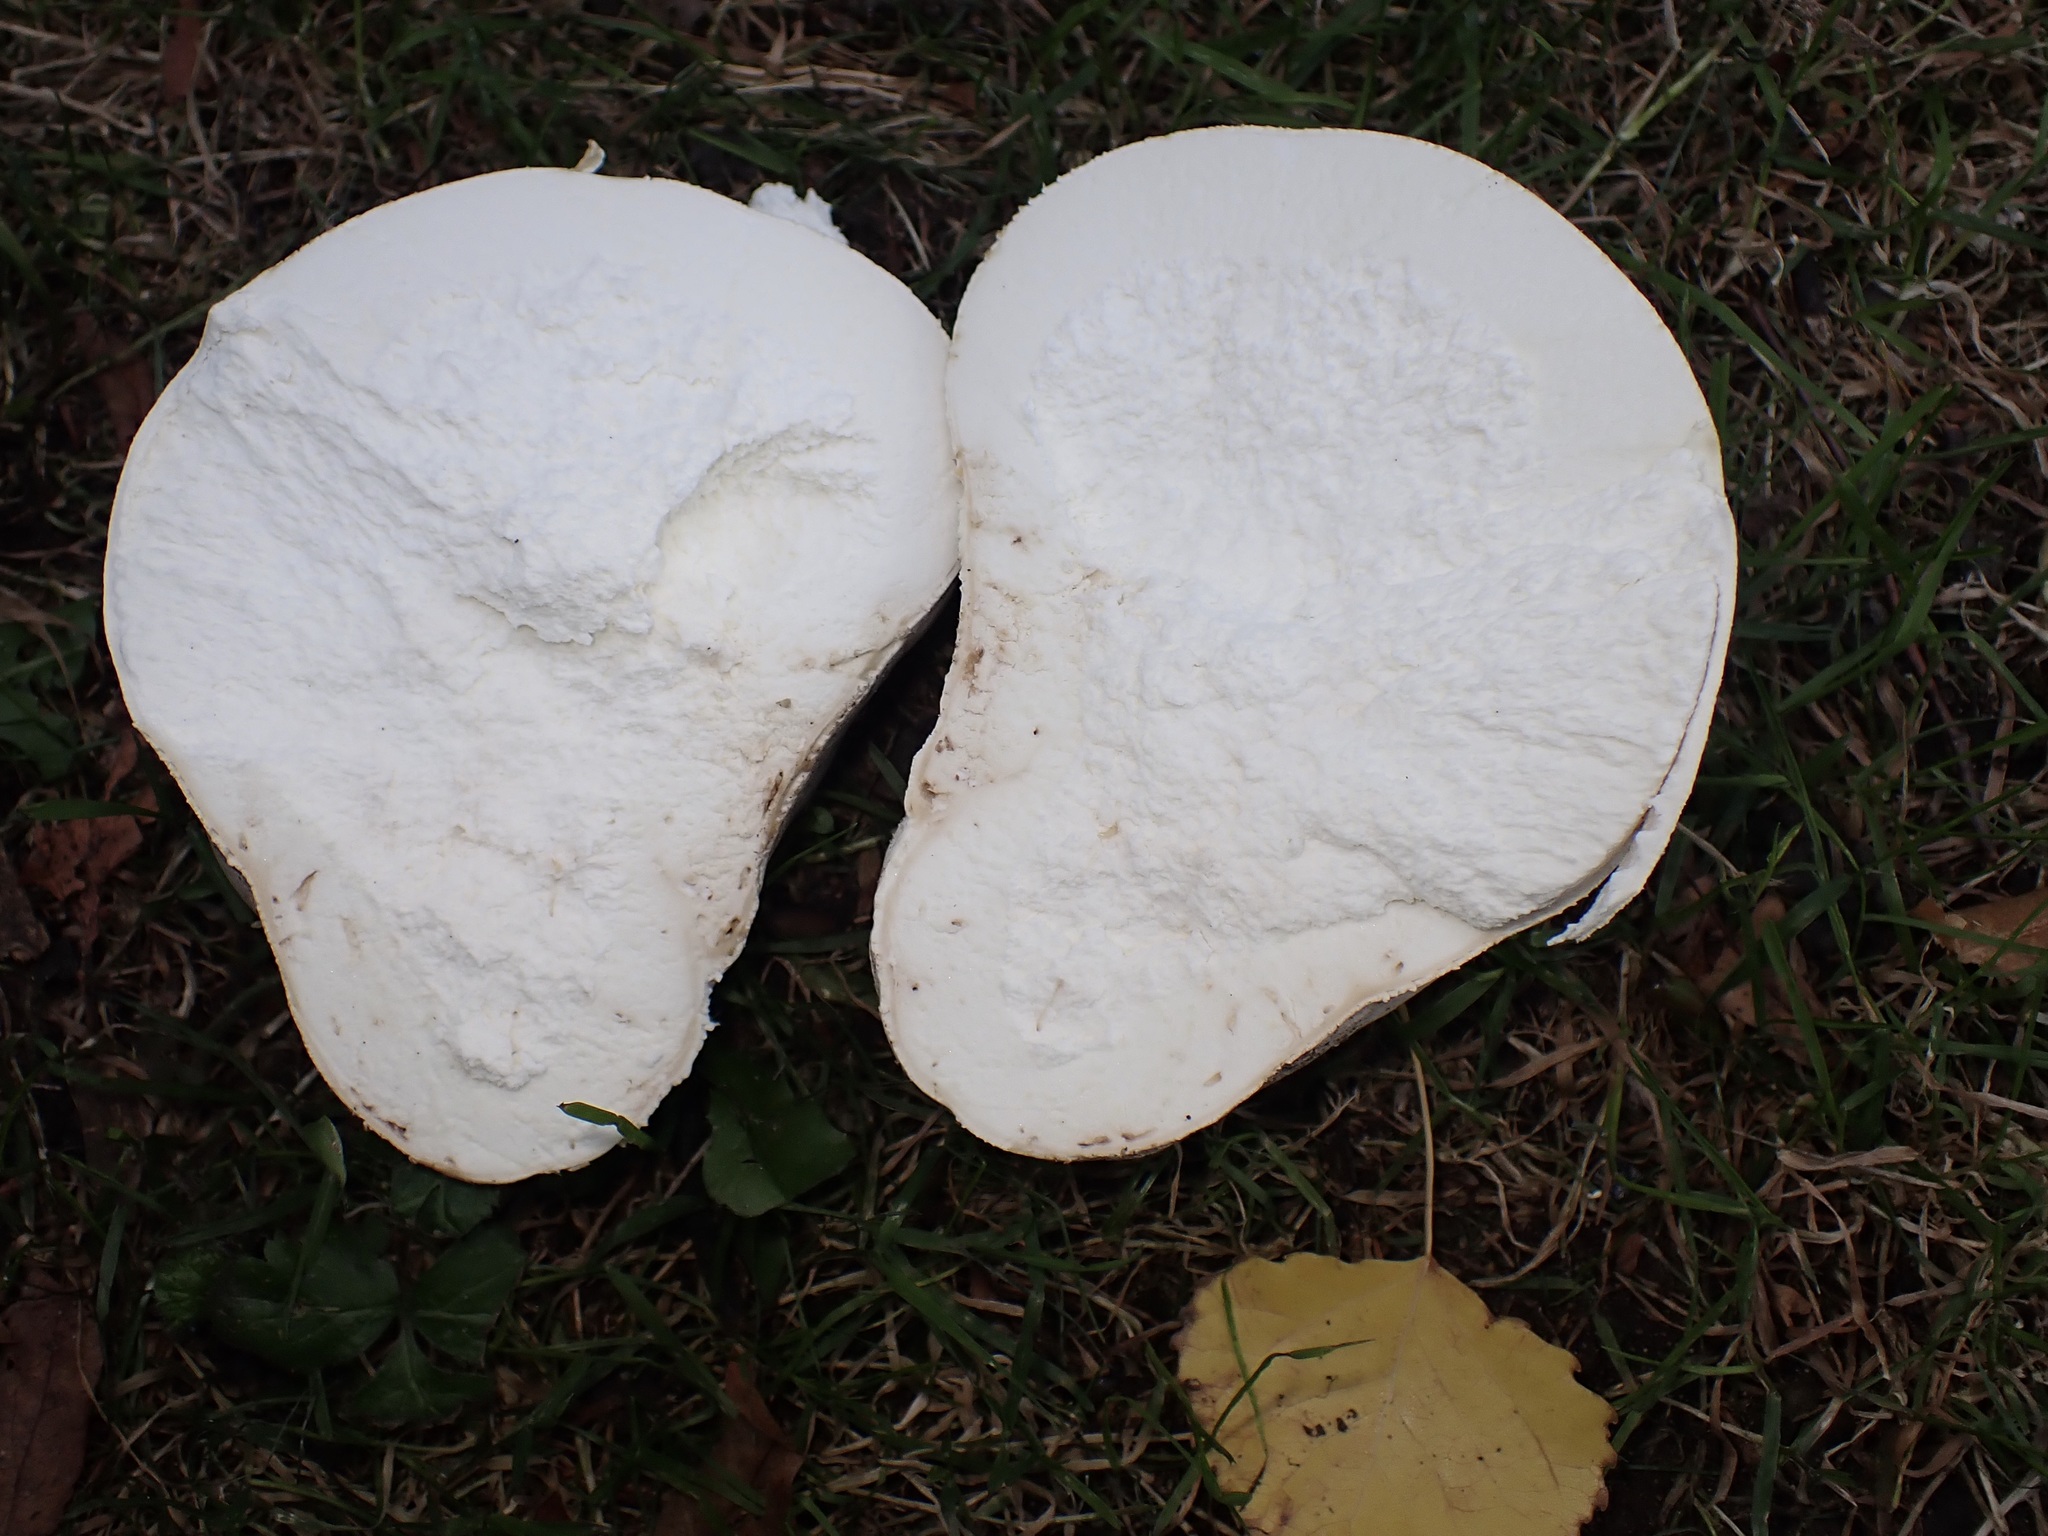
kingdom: Fungi
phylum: Basidiomycota
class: Agaricomycetes
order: Agaricales
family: Lycoperdaceae
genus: Calvatia
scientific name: Calvatia gigantea
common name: Giant puffball
